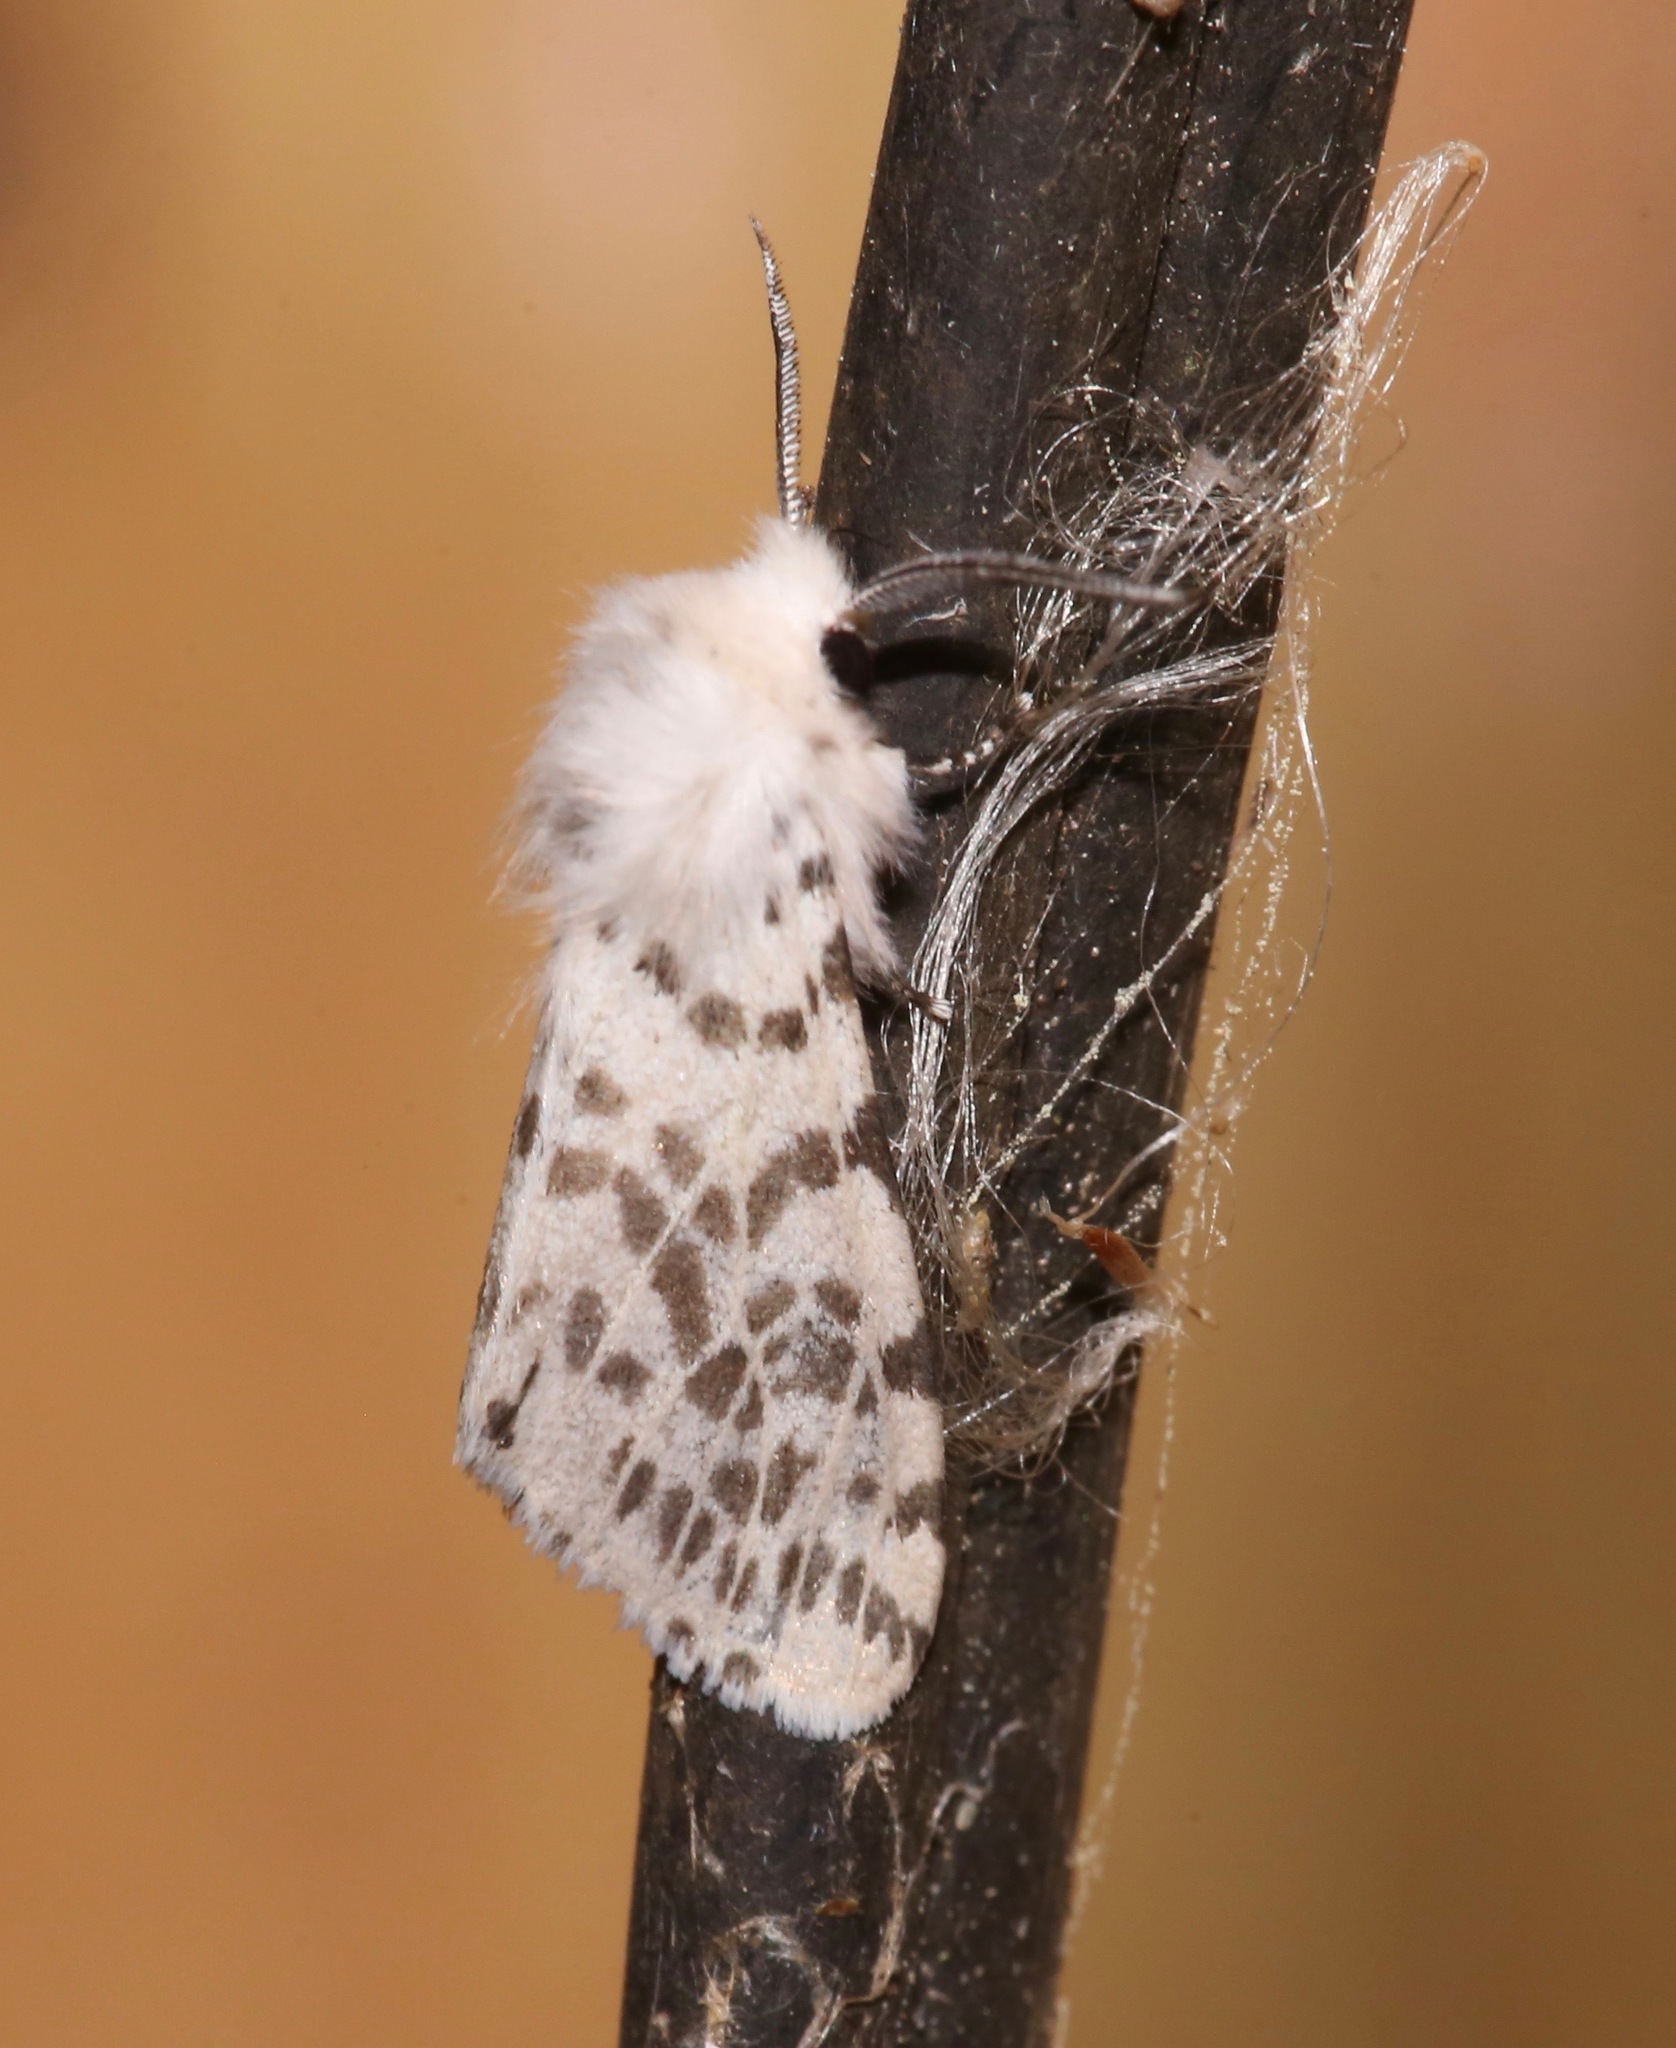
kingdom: Animalia
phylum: Arthropoda
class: Insecta
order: Lepidoptera
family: Erebidae
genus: Hyphantria
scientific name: Hyphantria cunea
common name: American white moth
